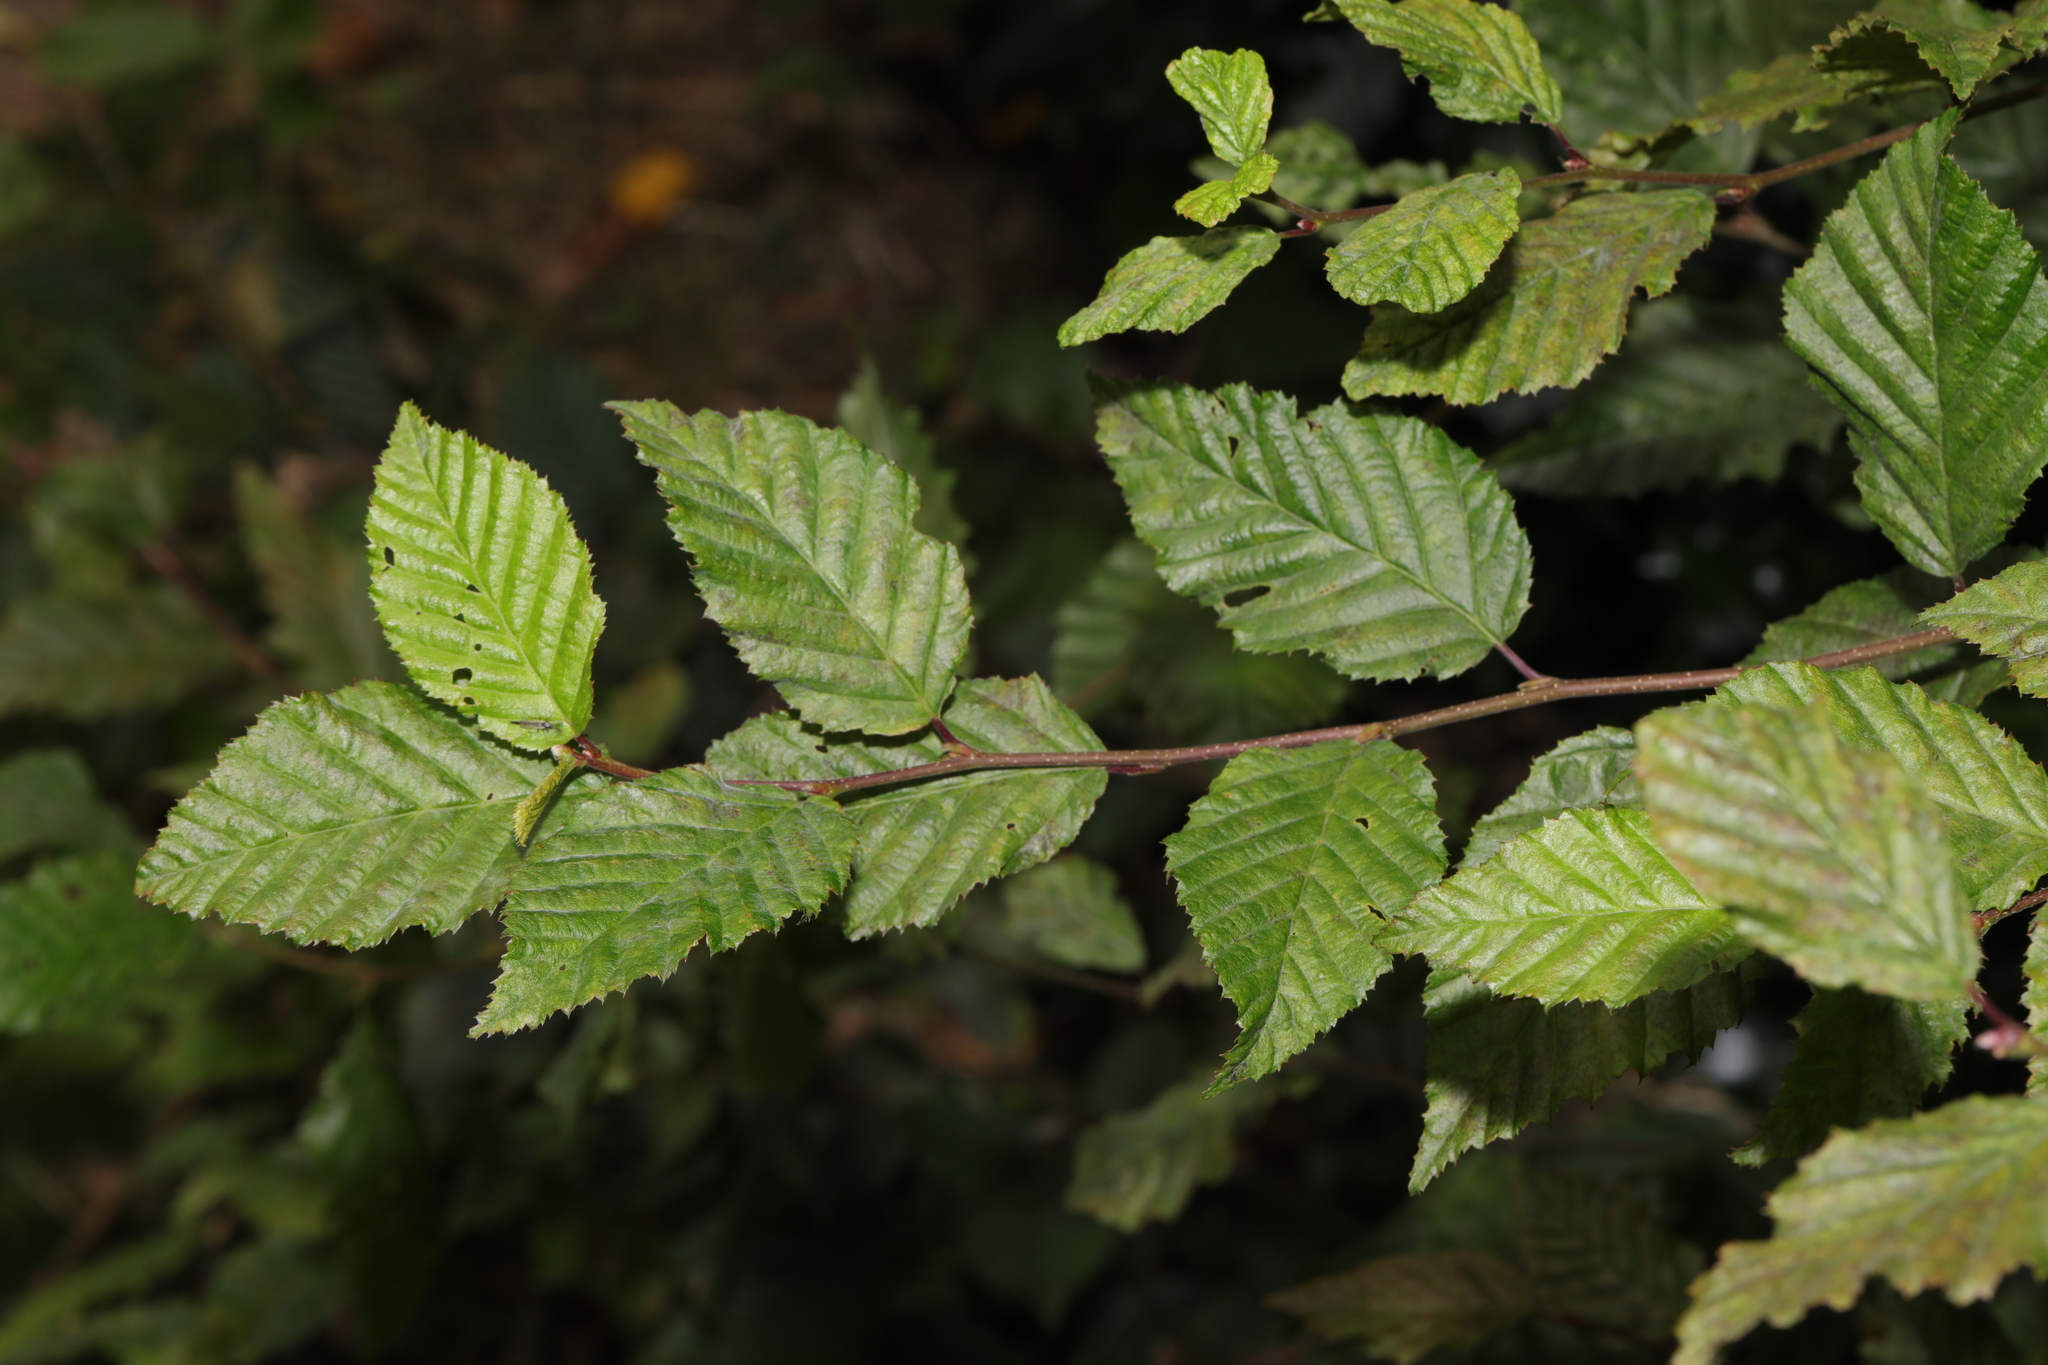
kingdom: Plantae
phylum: Tracheophyta
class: Magnoliopsida
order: Fagales
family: Betulaceae
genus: Carpinus
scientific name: Carpinus betulus
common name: Hornbeam
